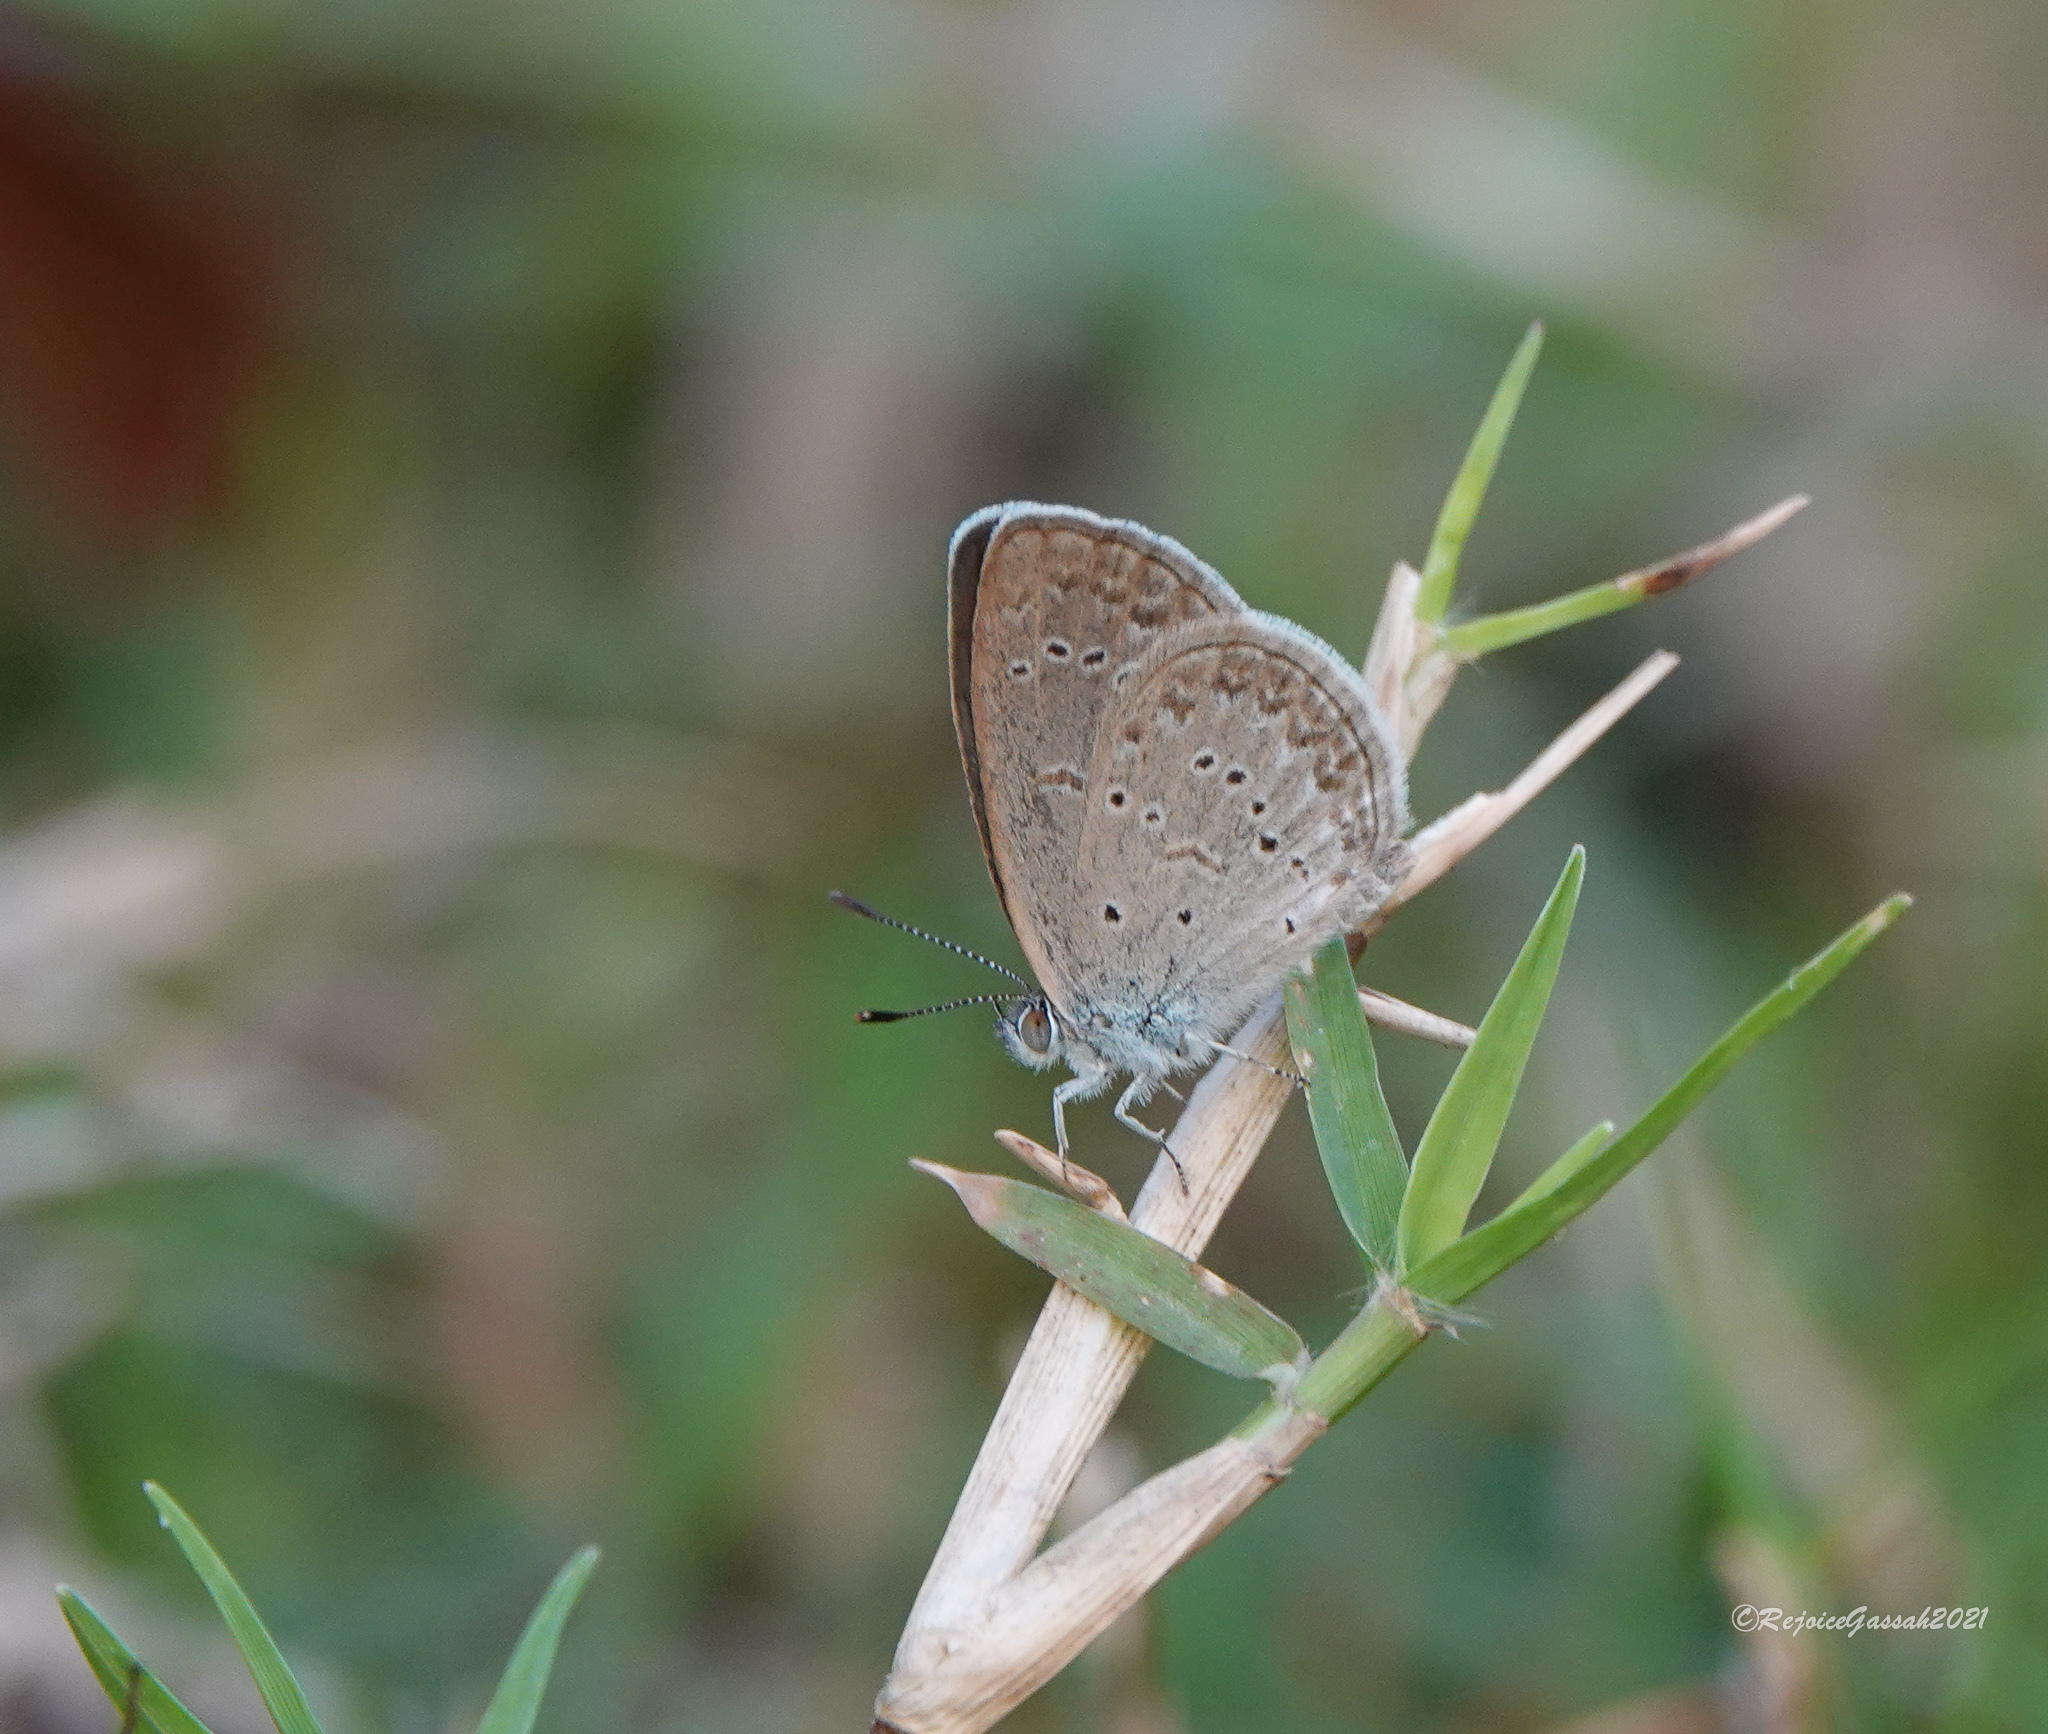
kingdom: Animalia
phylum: Arthropoda
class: Insecta
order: Lepidoptera
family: Lycaenidae
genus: Zizina
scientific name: Zizina otis
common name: Lesser grass blue
